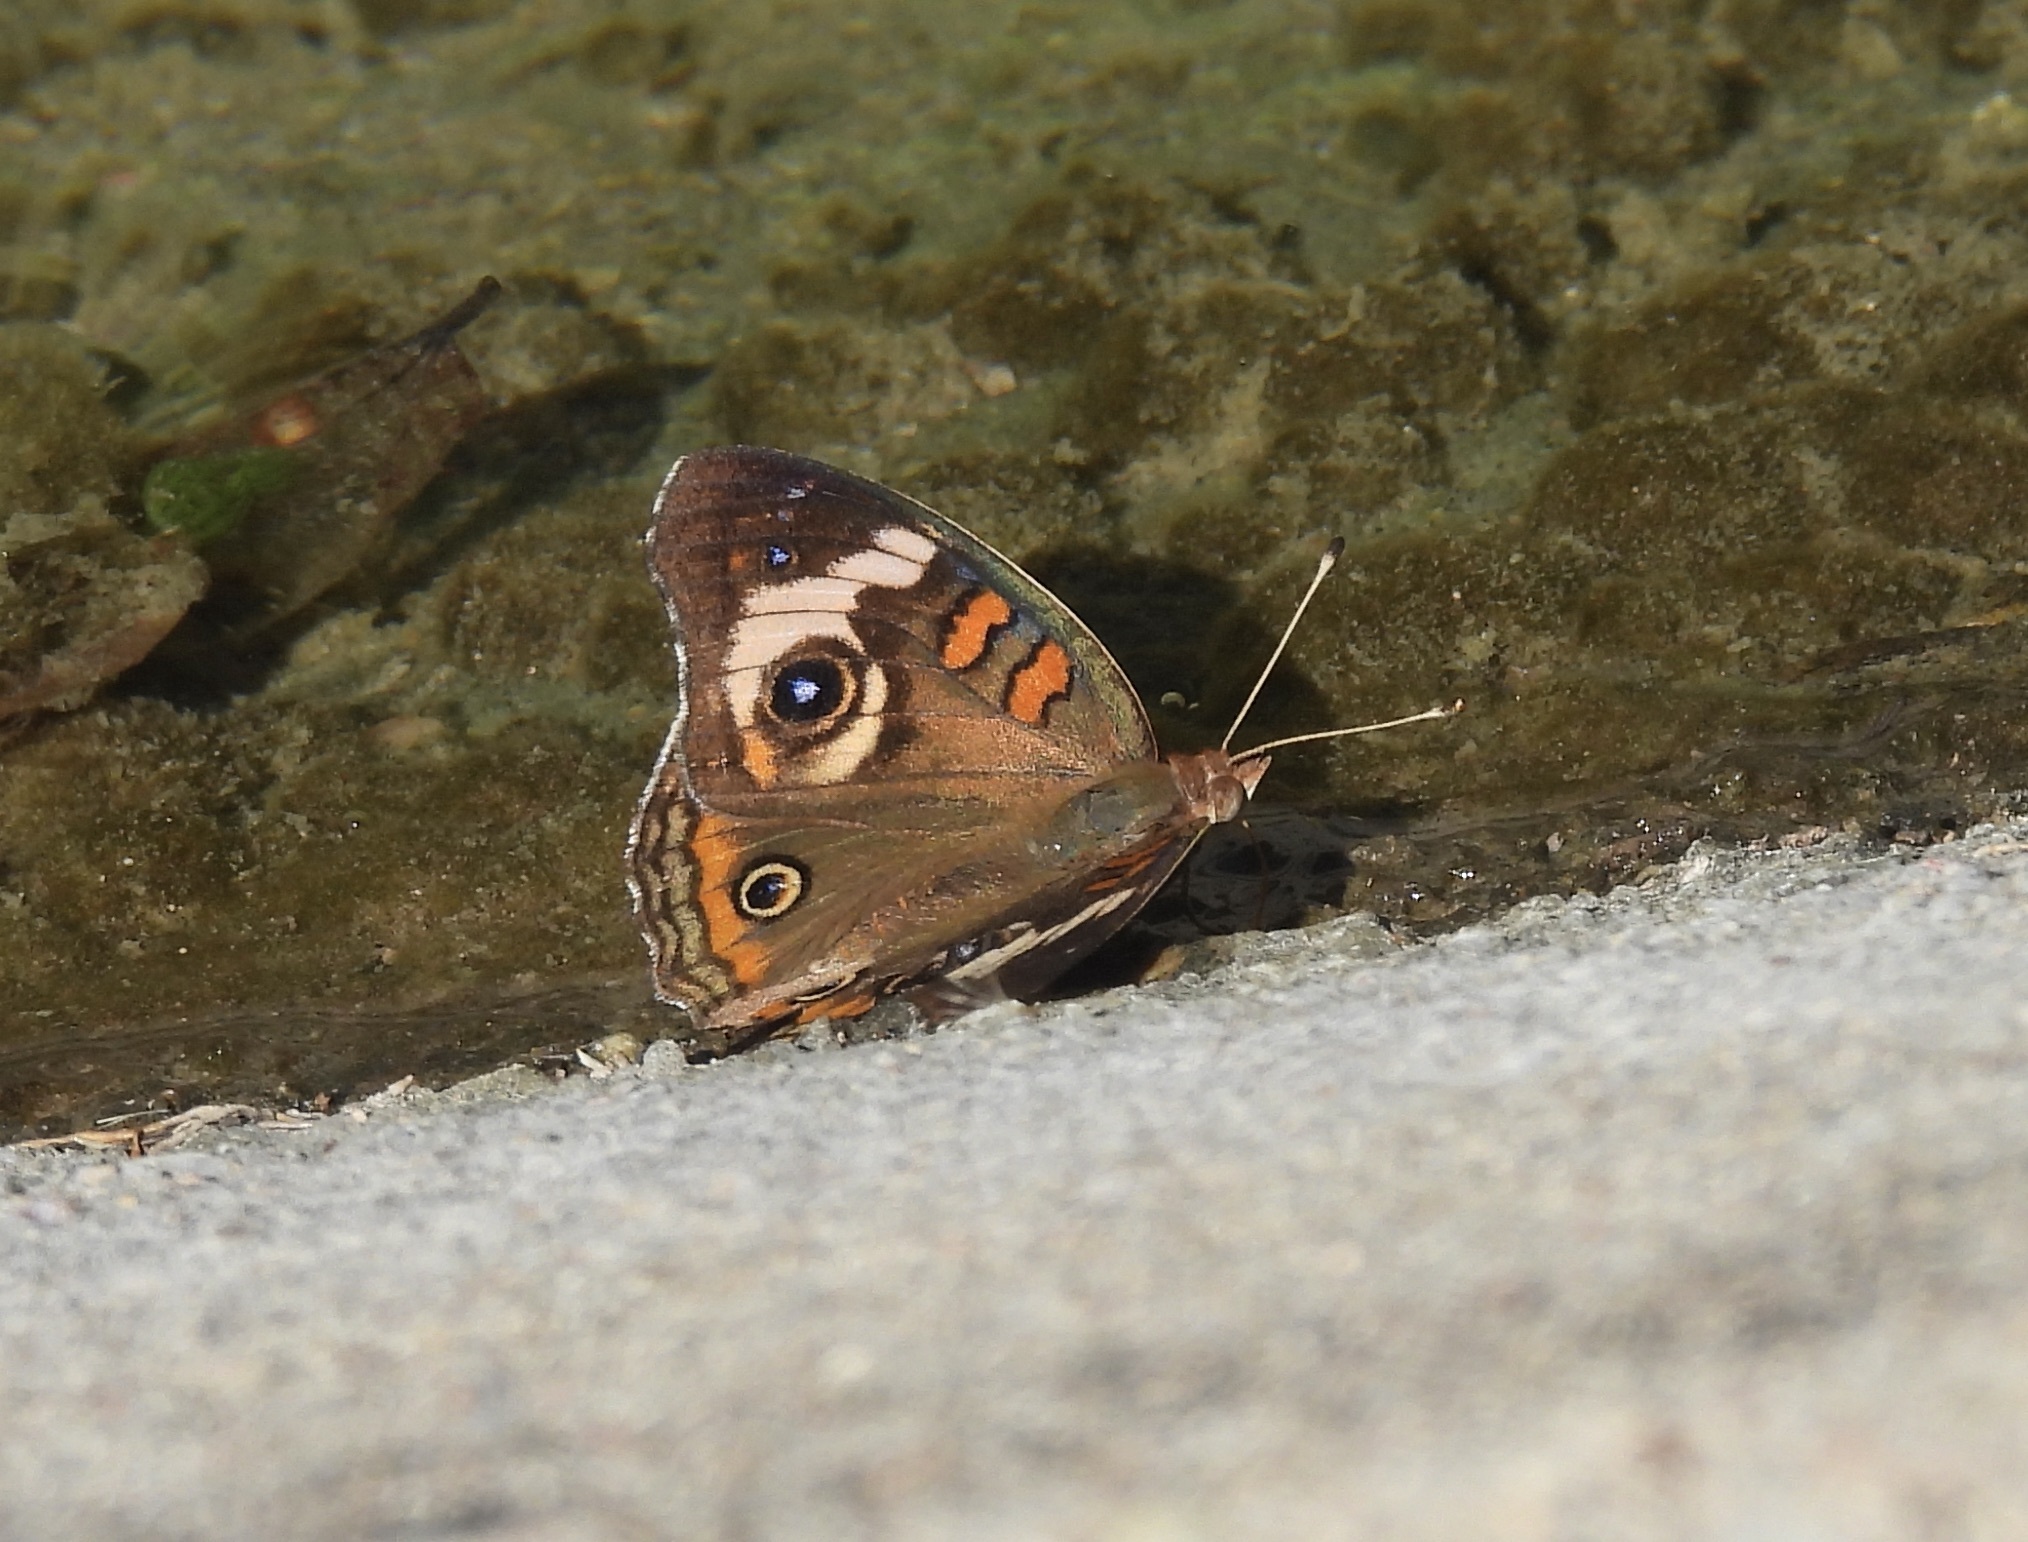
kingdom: Animalia
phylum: Arthropoda
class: Insecta
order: Lepidoptera
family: Nymphalidae
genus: Junonia
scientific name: Junonia coenia
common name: Common buckeye
